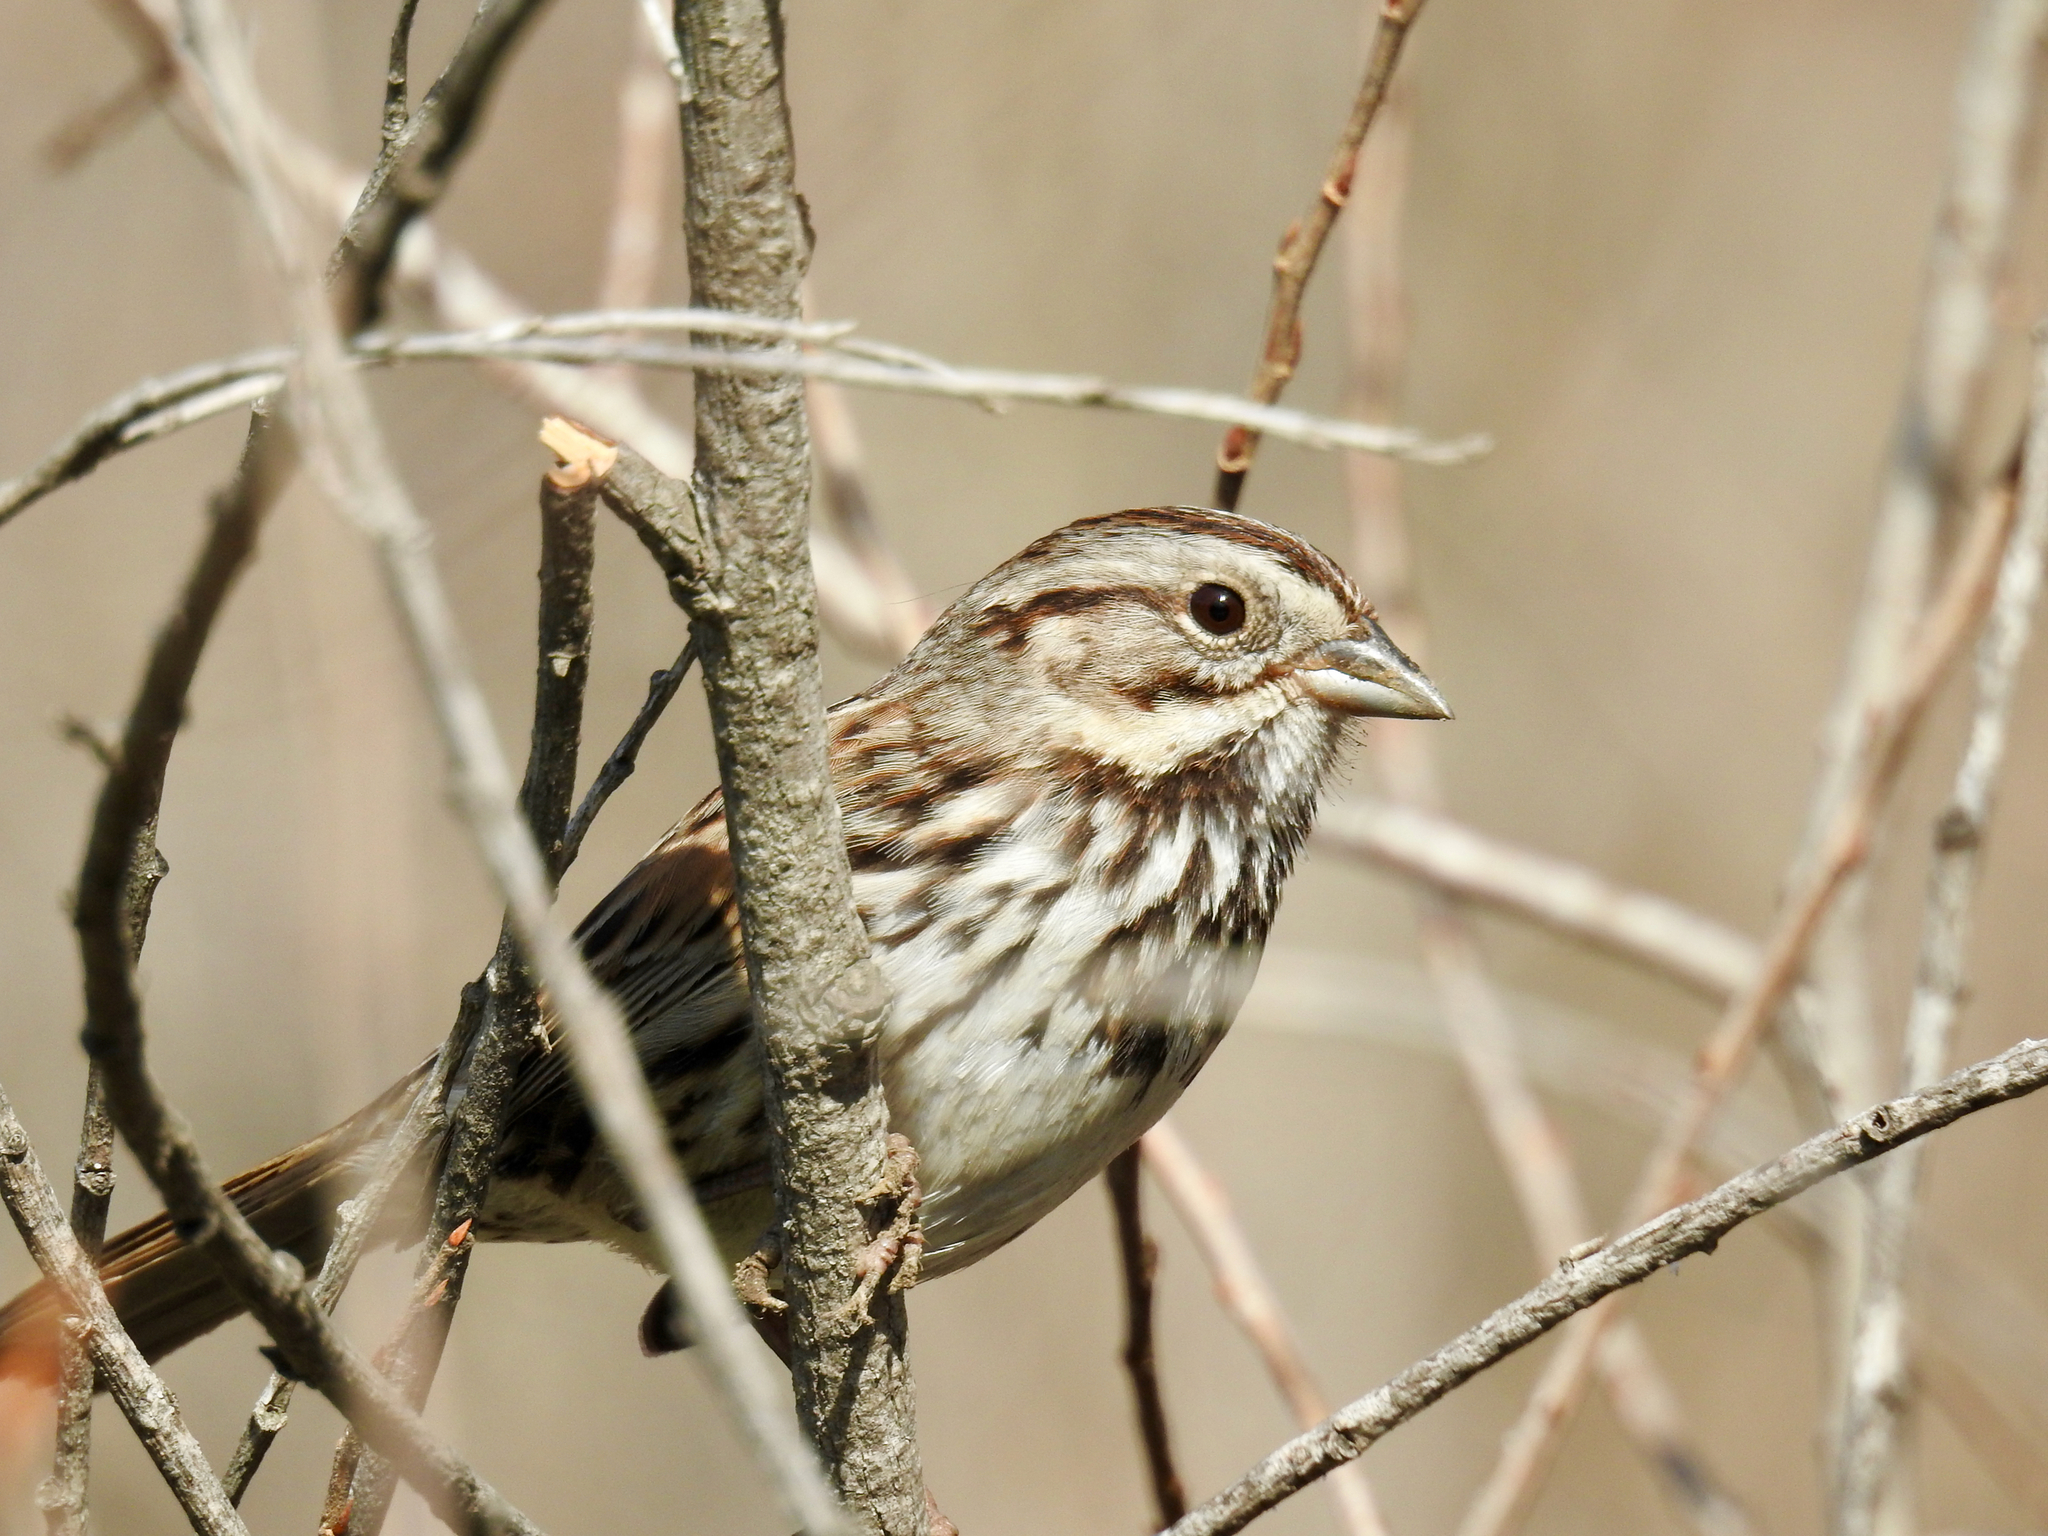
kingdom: Animalia
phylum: Chordata
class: Aves
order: Passeriformes
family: Passerellidae
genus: Melospiza
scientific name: Melospiza melodia
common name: Song sparrow
